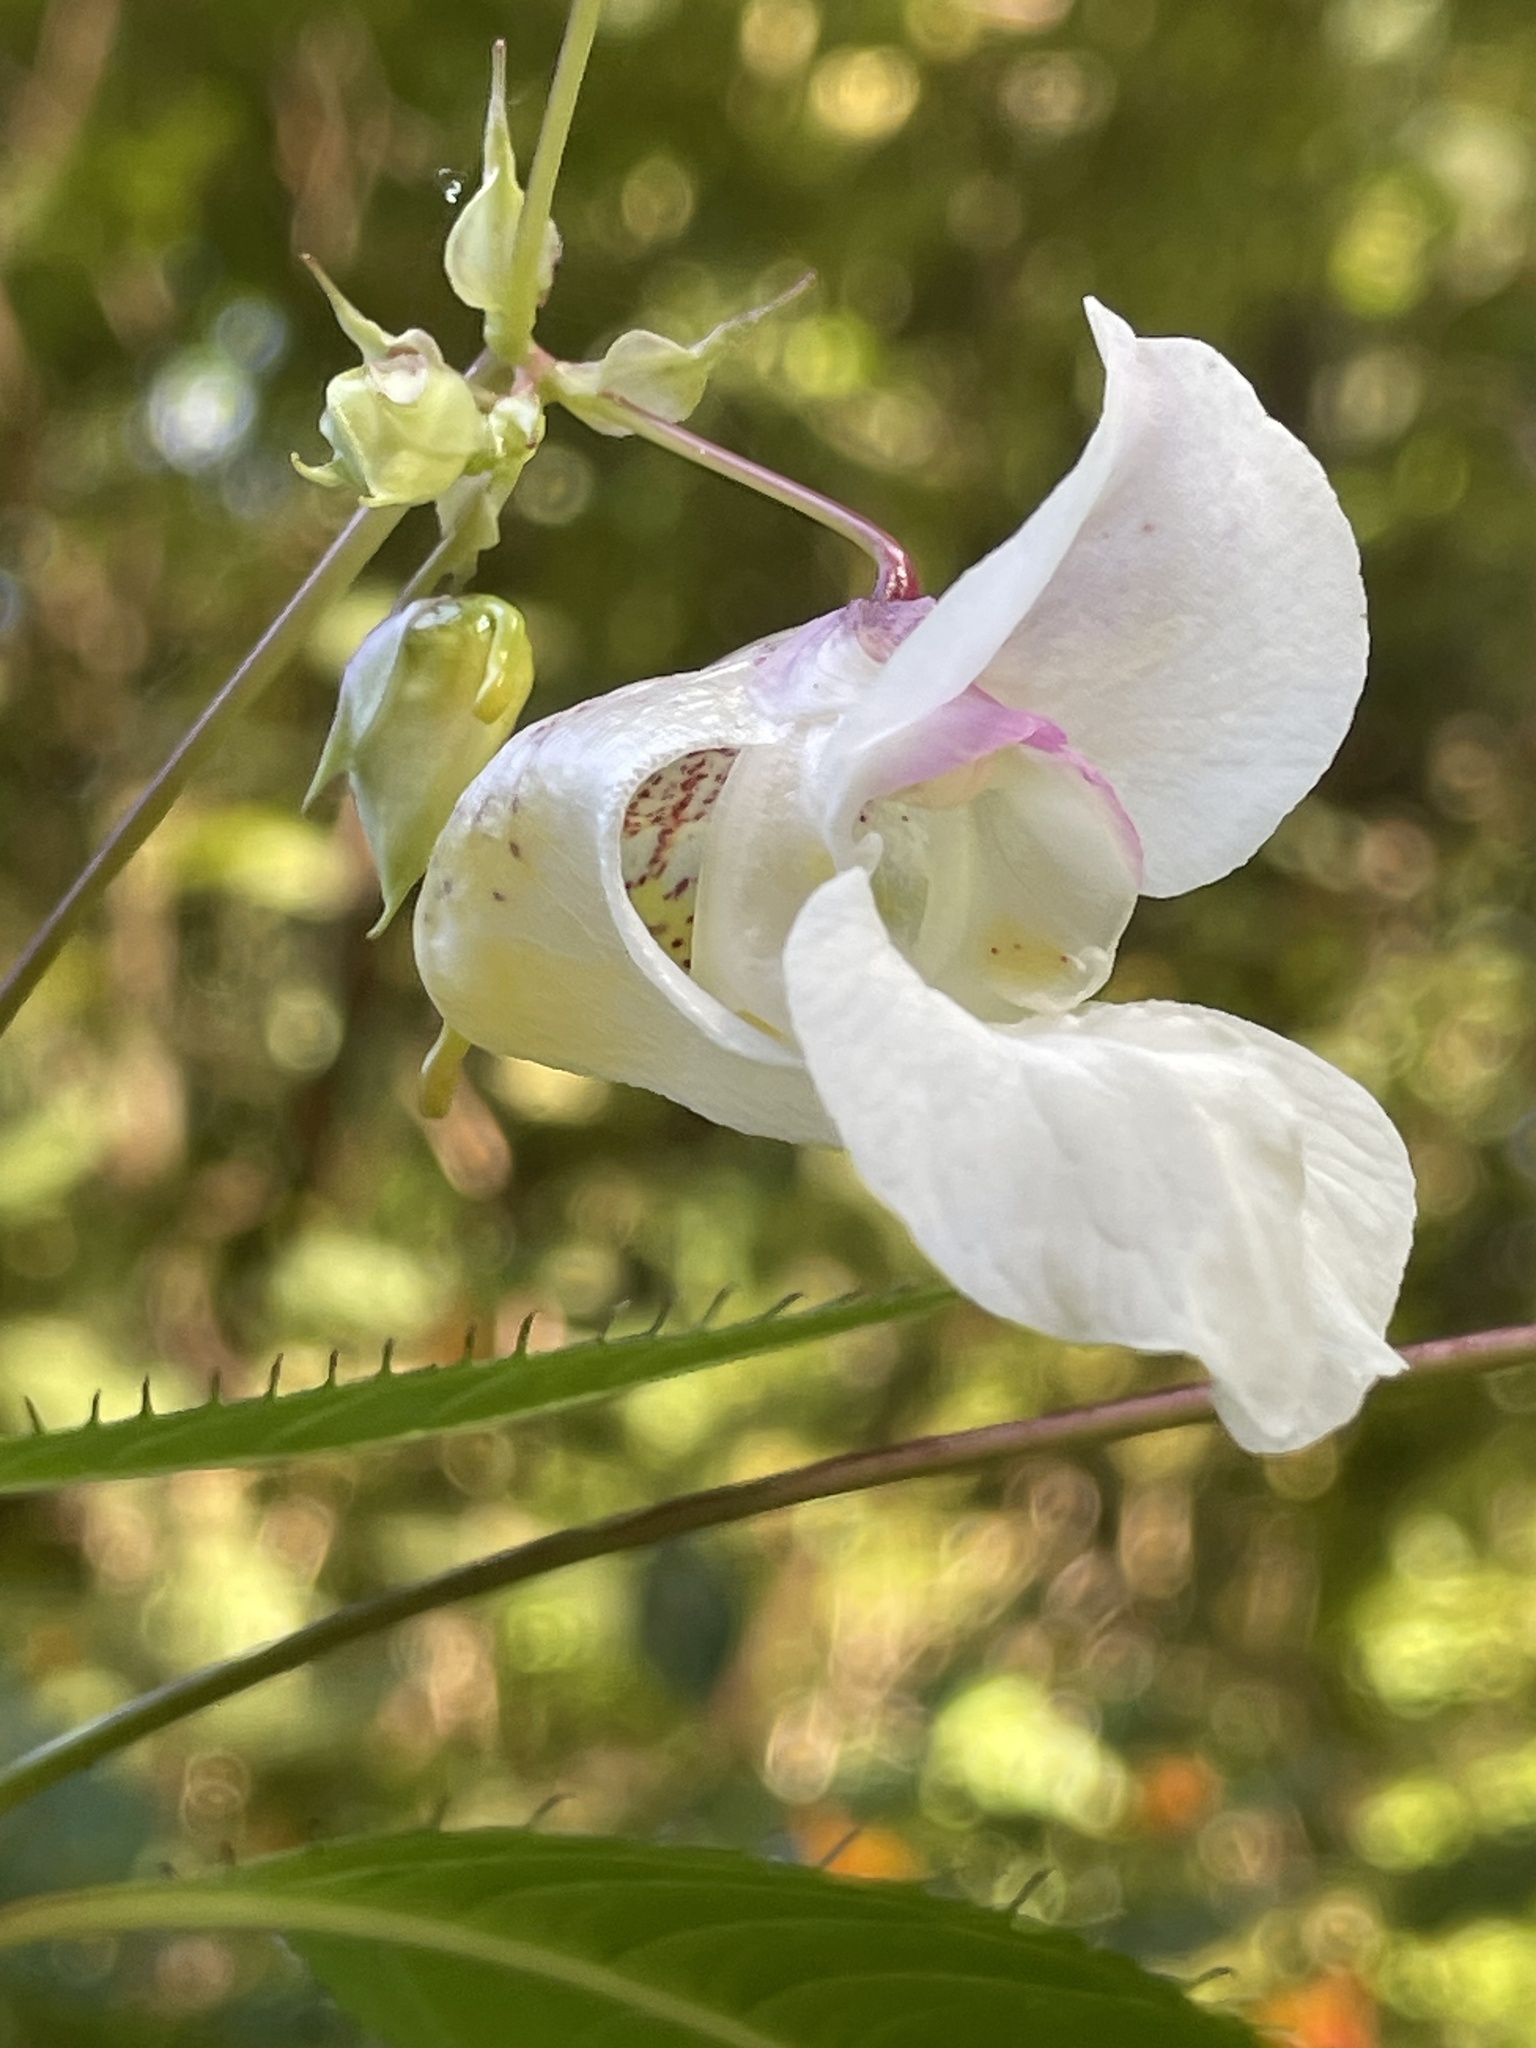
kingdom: Plantae
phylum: Tracheophyta
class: Magnoliopsida
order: Ericales
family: Balsaminaceae
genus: Impatiens
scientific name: Impatiens glandulifera
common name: Himalayan balsam
